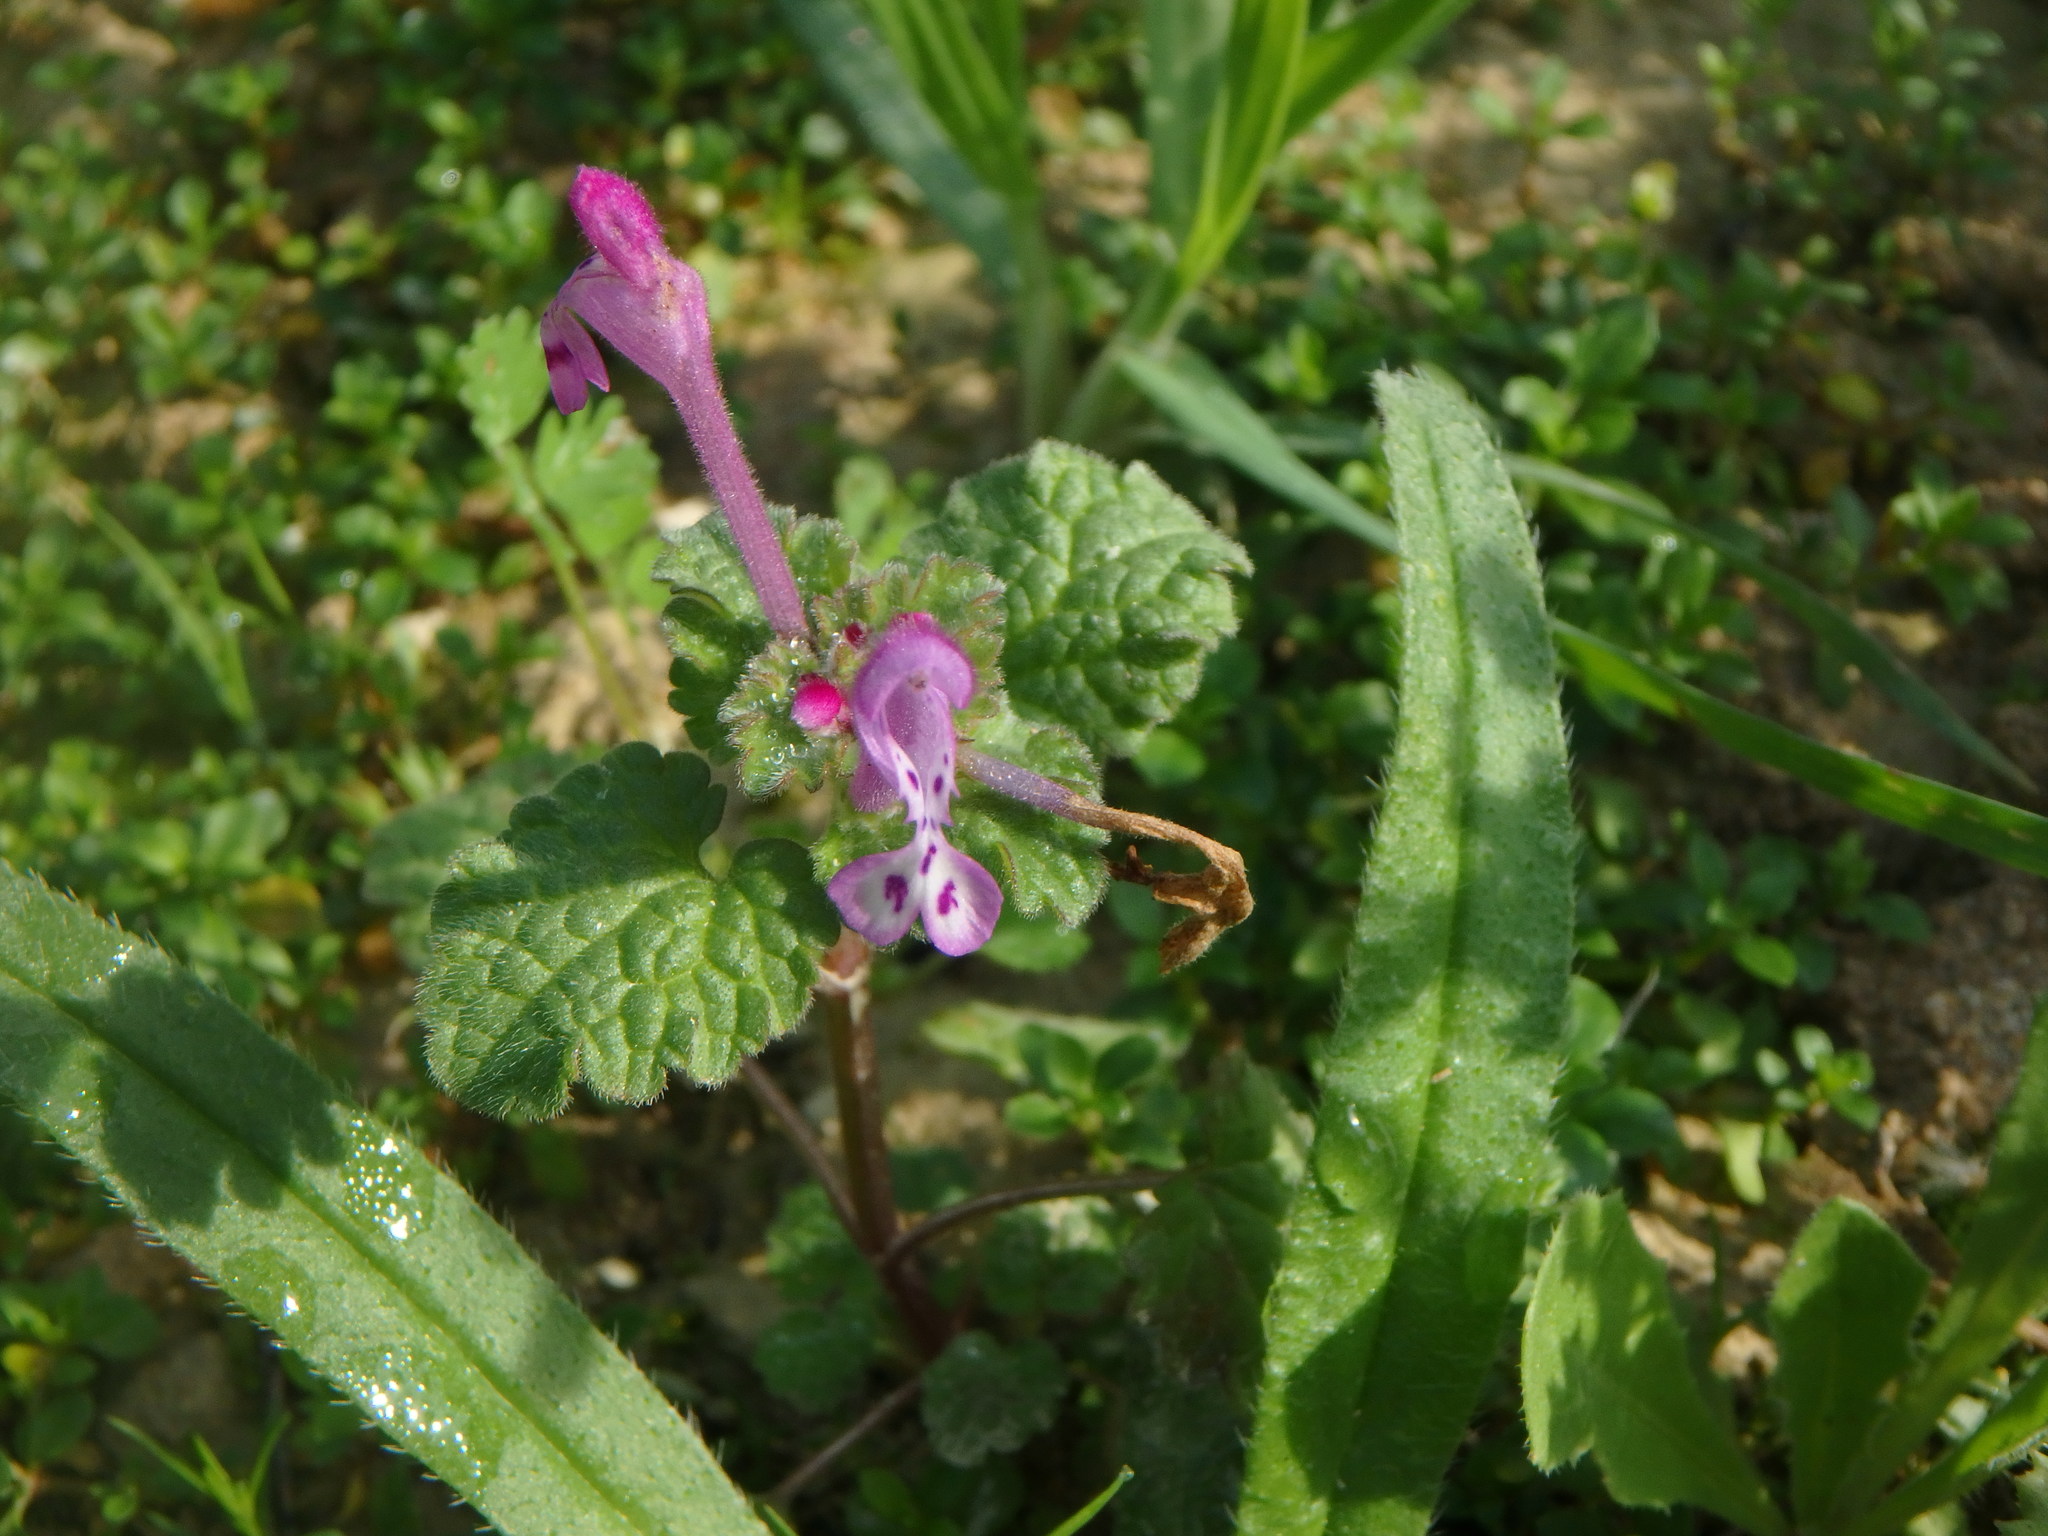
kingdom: Plantae
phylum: Tracheophyta
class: Magnoliopsida
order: Lamiales
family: Lamiaceae
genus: Lamium
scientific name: Lamium amplexicaule
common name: Henbit dead-nettle
